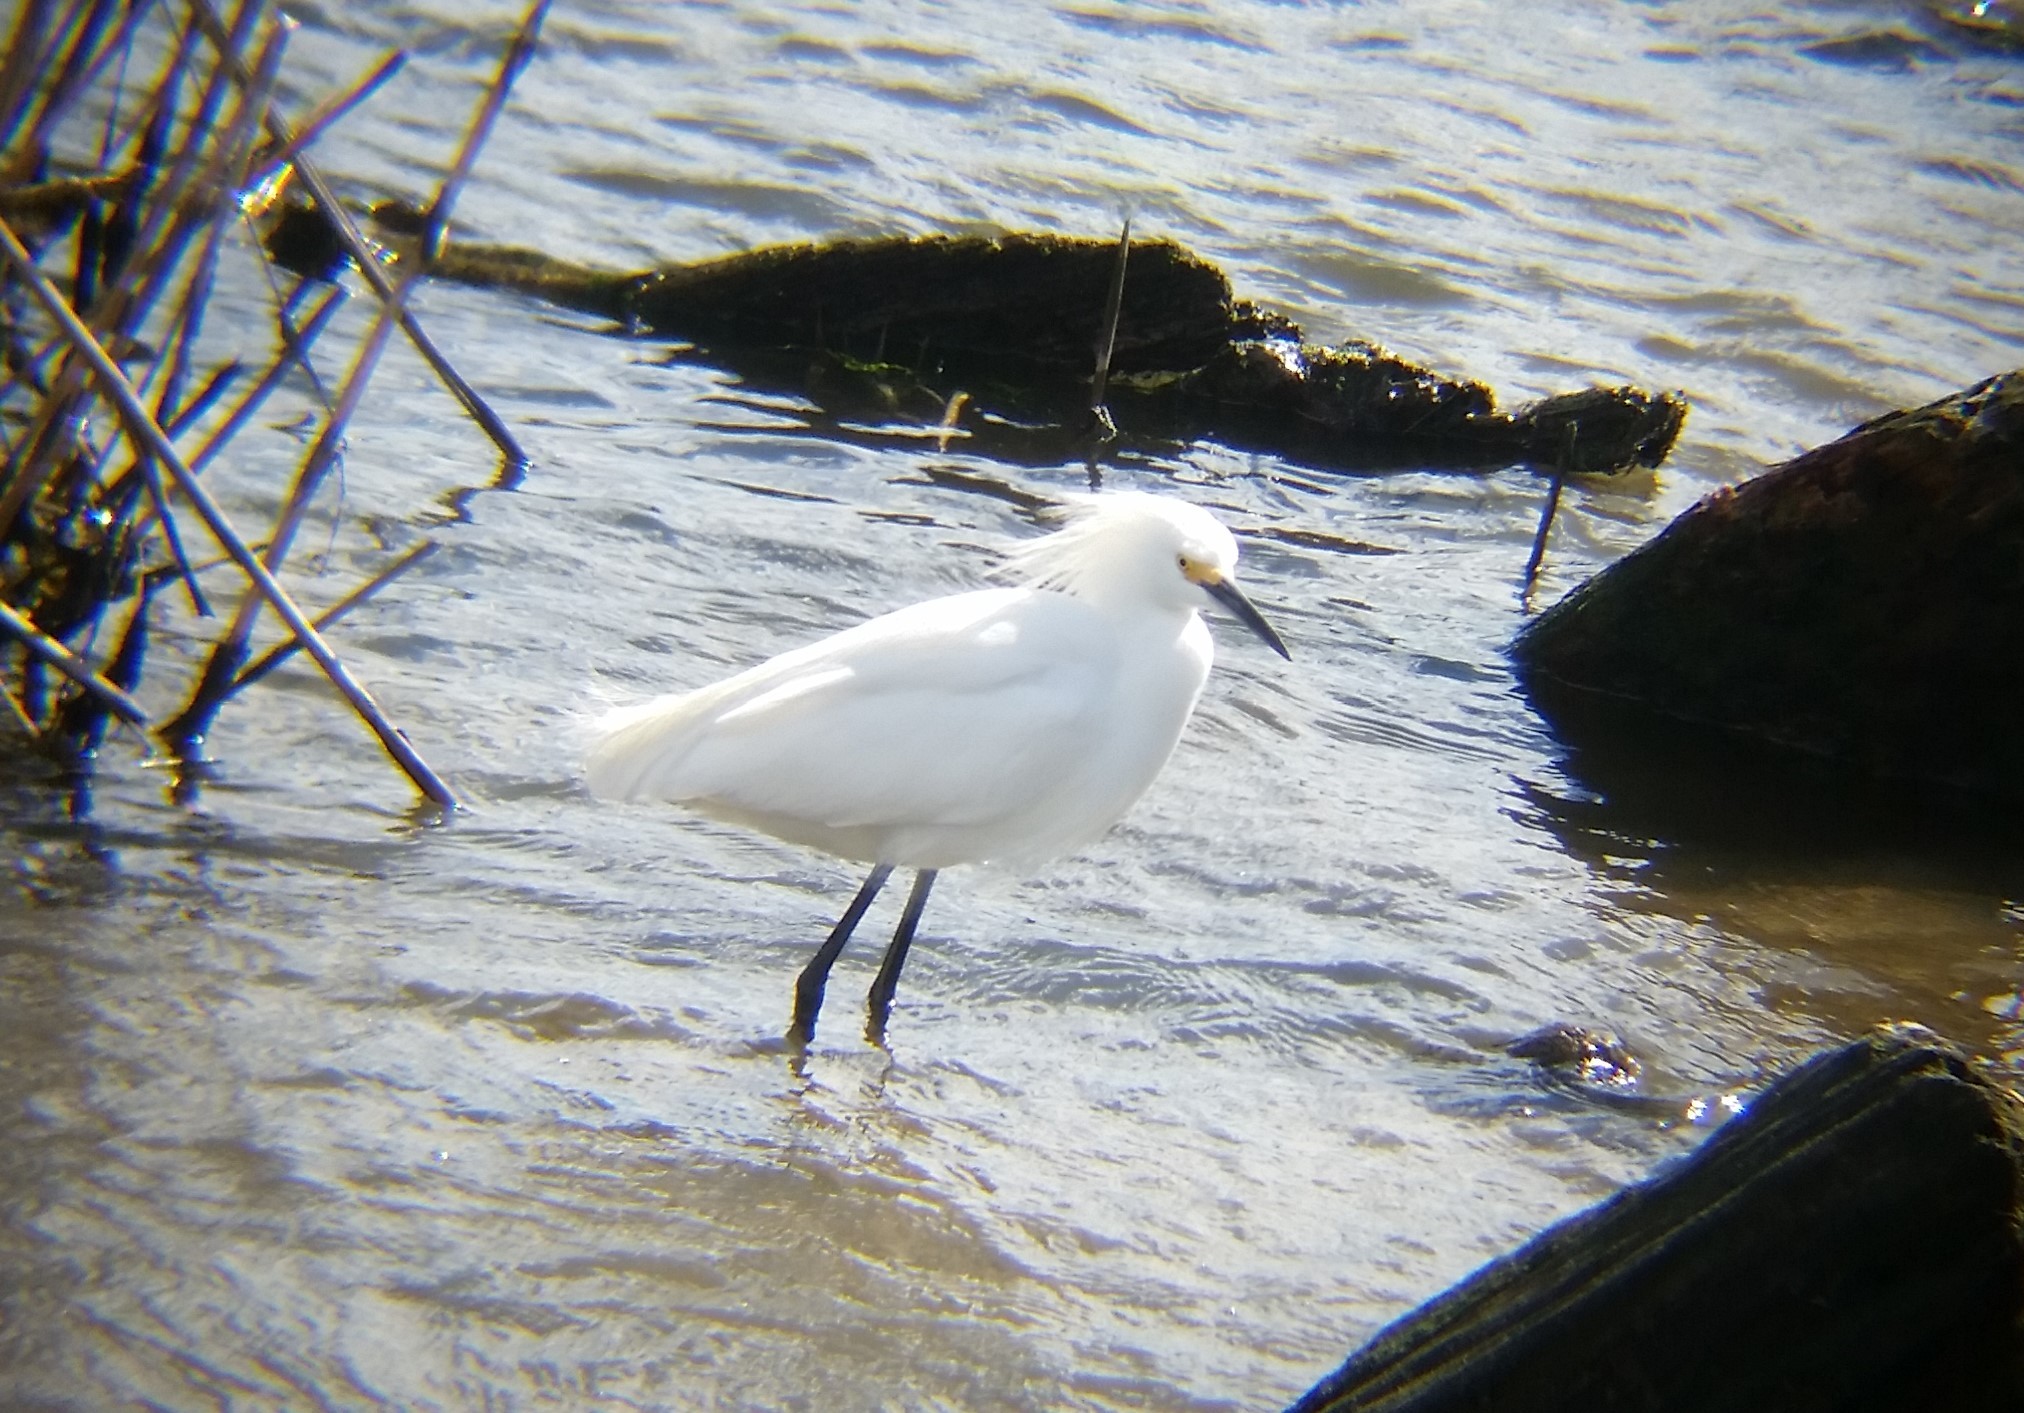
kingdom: Animalia
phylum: Chordata
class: Aves
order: Pelecaniformes
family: Ardeidae
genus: Egretta
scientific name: Egretta thula
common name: Snowy egret
